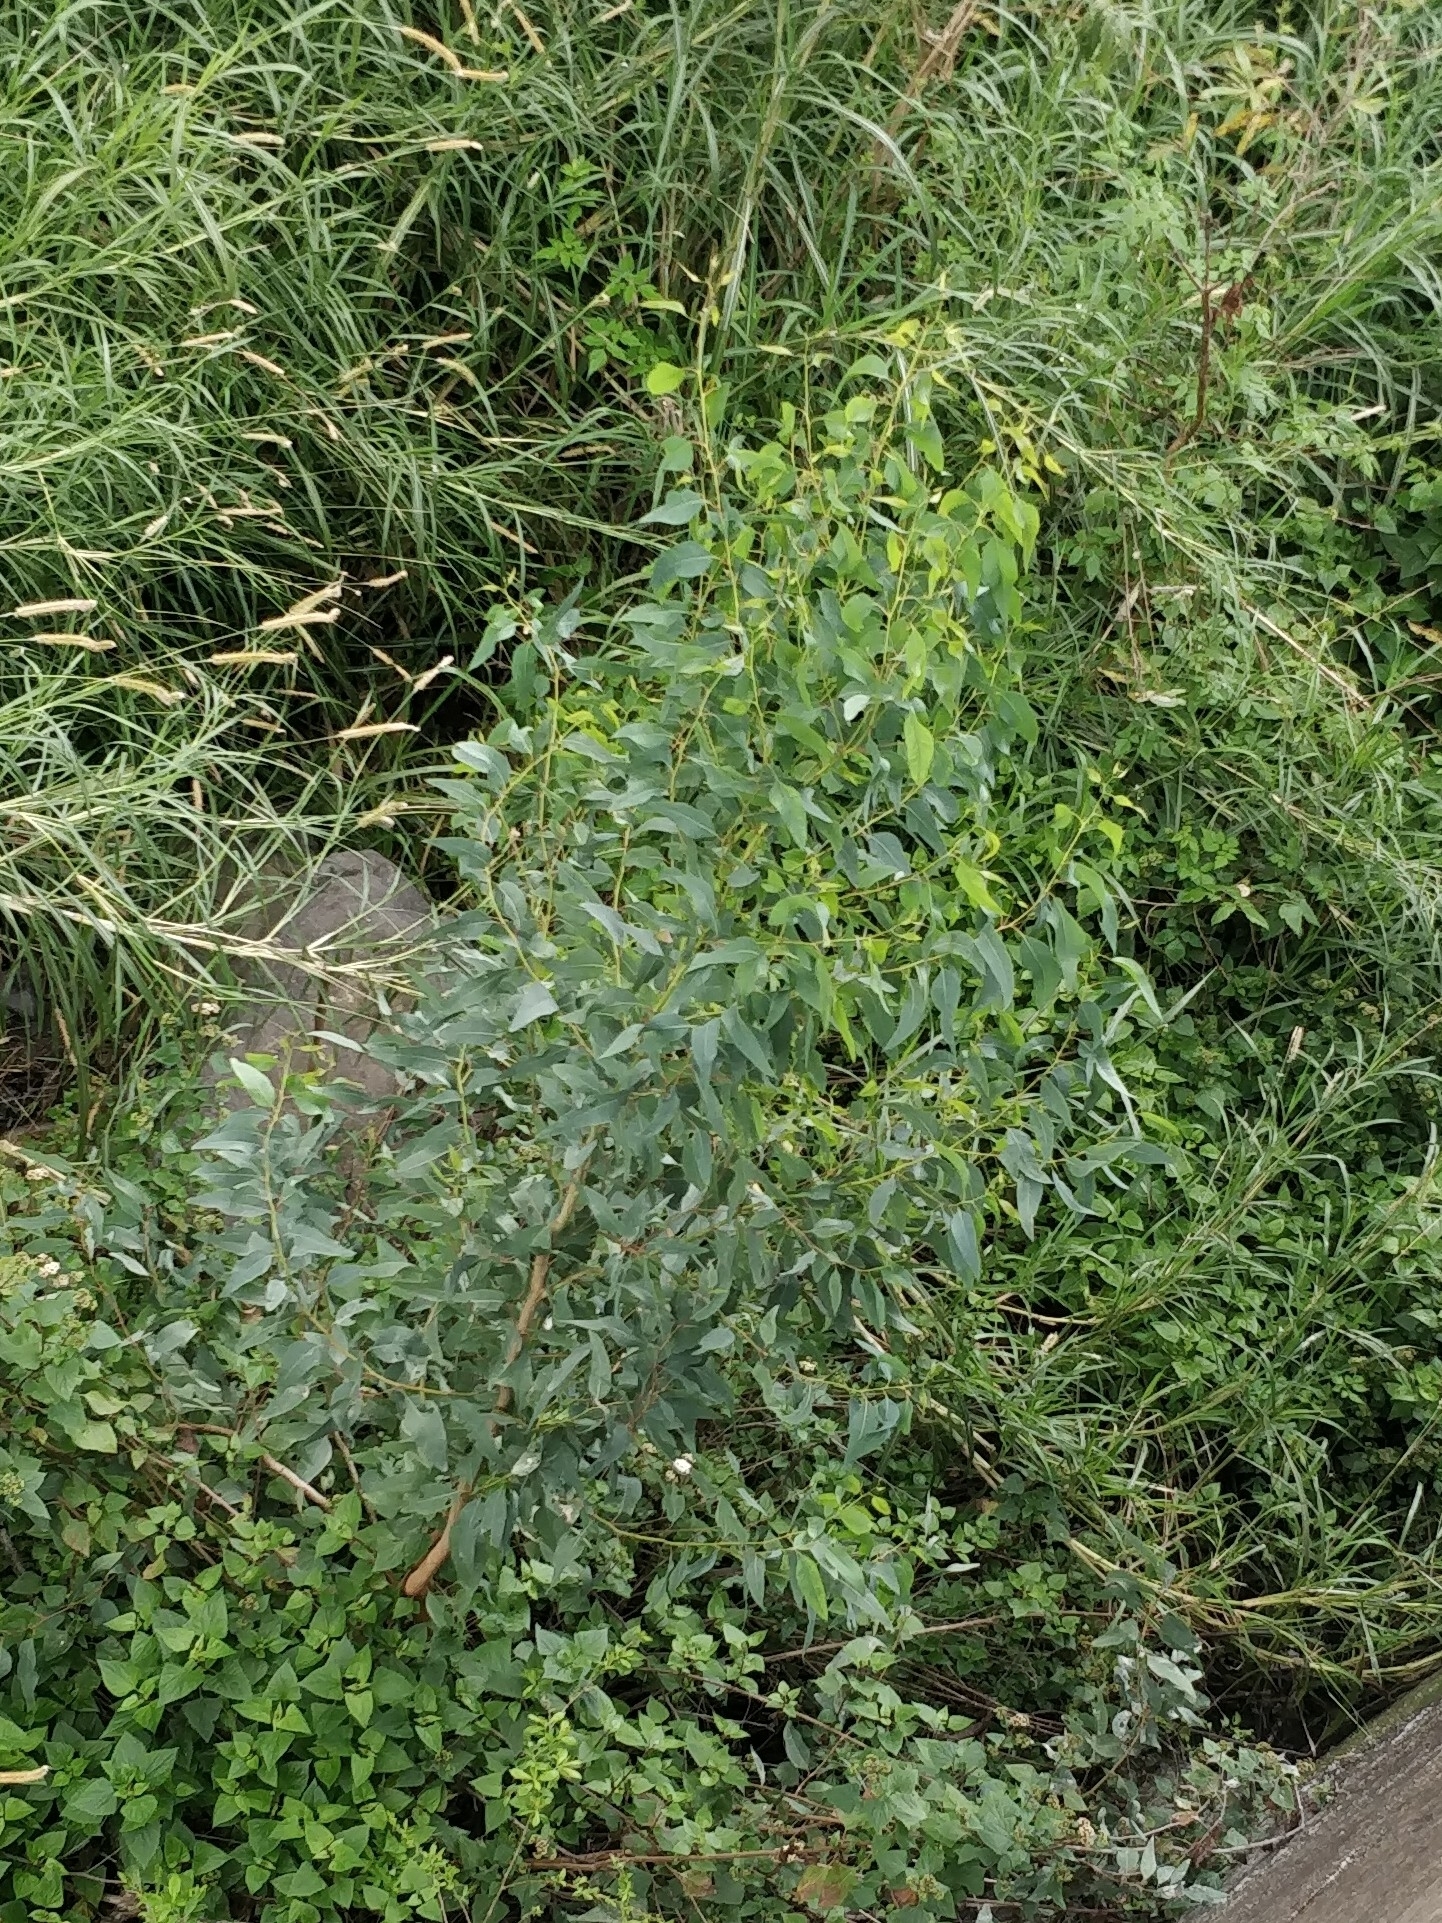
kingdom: Plantae
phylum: Tracheophyta
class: Magnoliopsida
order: Myrtales
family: Myrtaceae
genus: Eucalyptus
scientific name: Eucalyptus globulus
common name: Southern blue-gum
